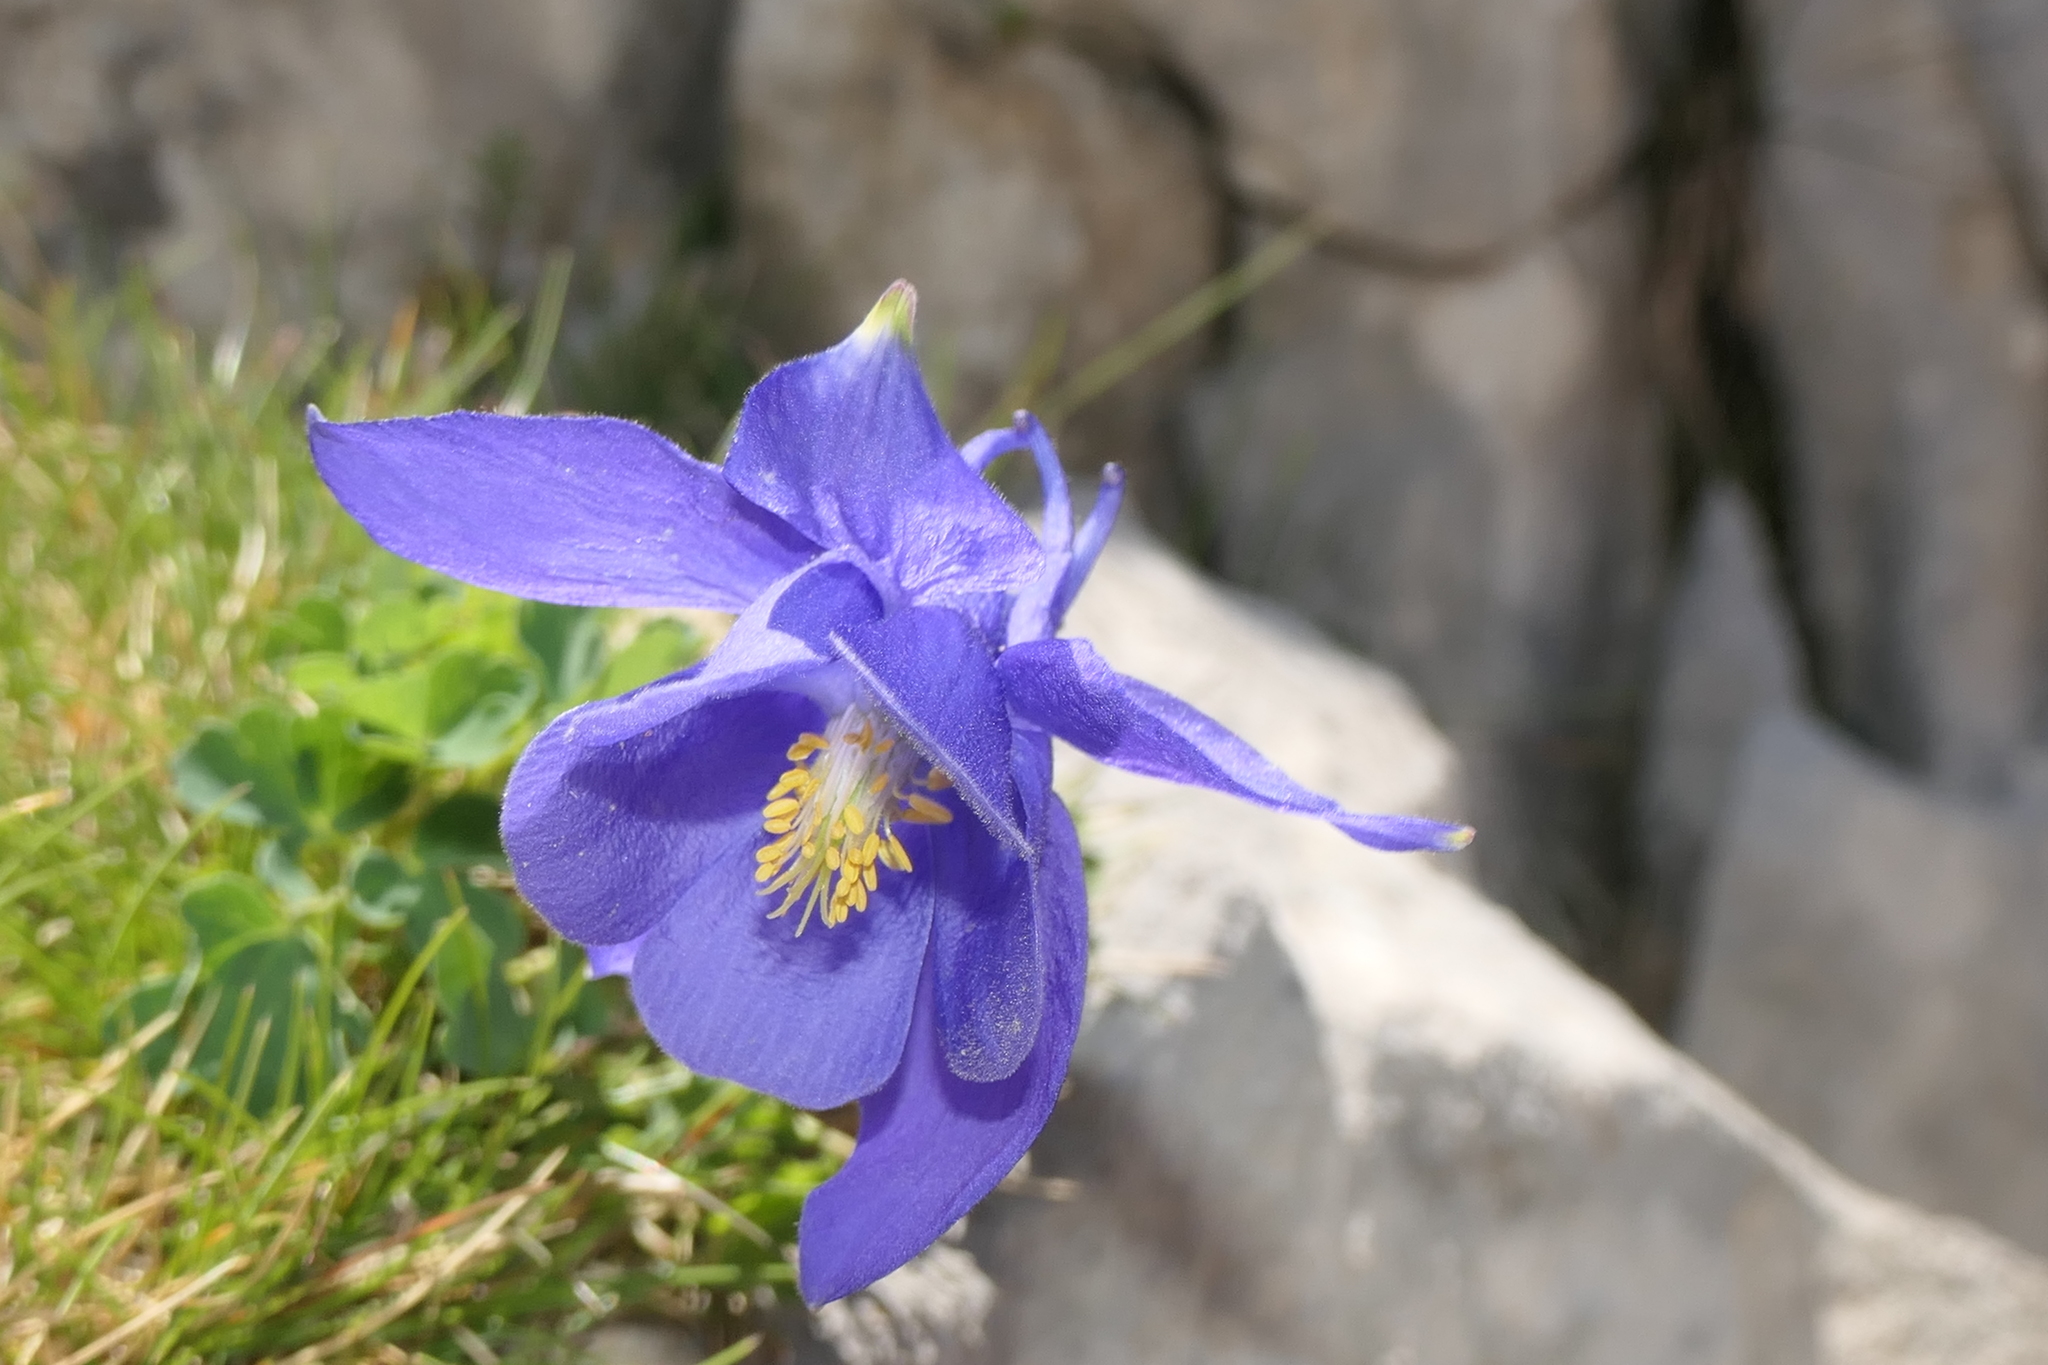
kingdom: Plantae
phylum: Tracheophyta
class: Magnoliopsida
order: Ranunculales
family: Ranunculaceae
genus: Aquilegia
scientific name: Aquilegia pyrenaica
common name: Pyrenean columbine
